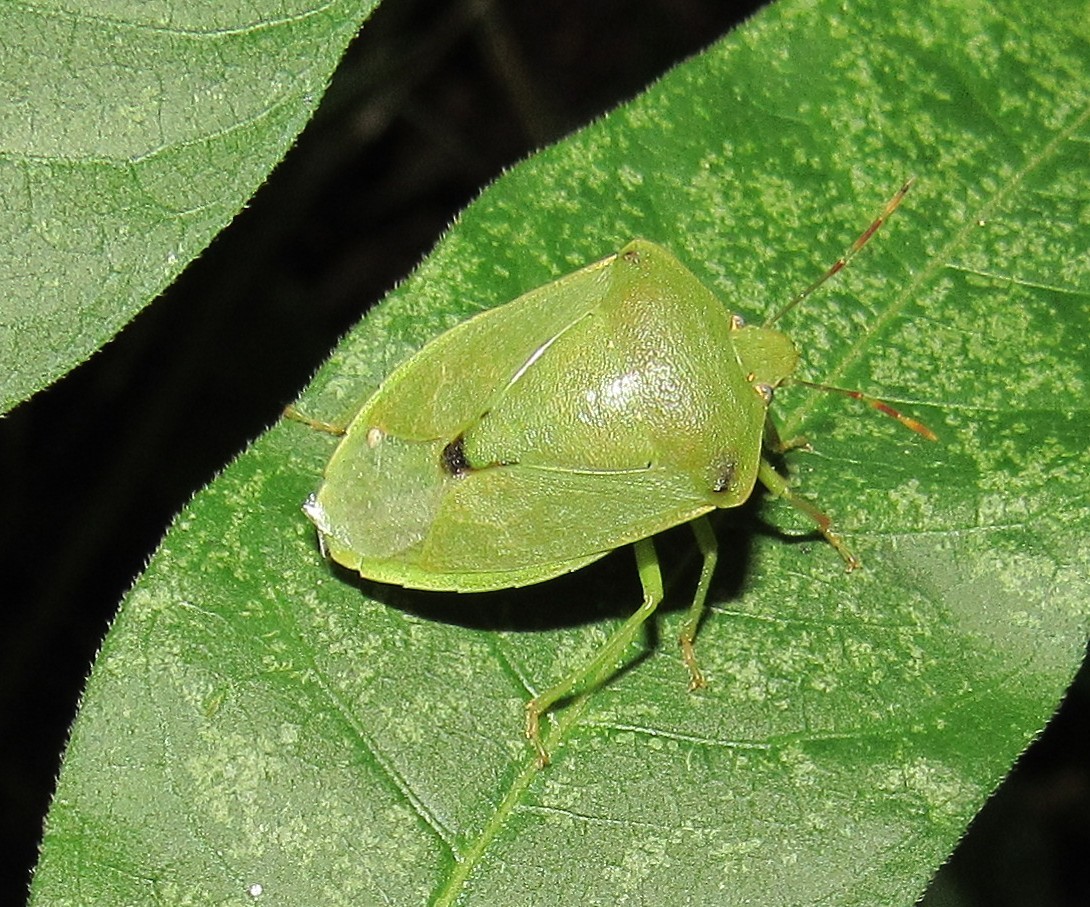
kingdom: Animalia
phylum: Arthropoda
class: Insecta
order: Hemiptera
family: Pentatomidae
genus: Nezara
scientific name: Nezara viridula
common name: Southern green stink bug
